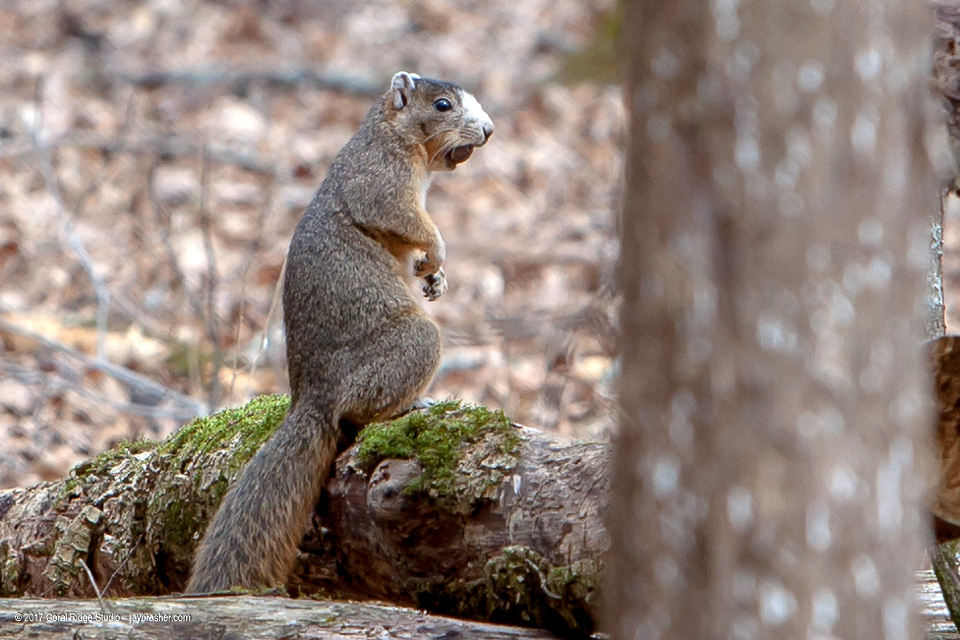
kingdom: Animalia
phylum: Chordata
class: Mammalia
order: Rodentia
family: Sciuridae
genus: Sciurus
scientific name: Sciurus niger
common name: Fox squirrel
